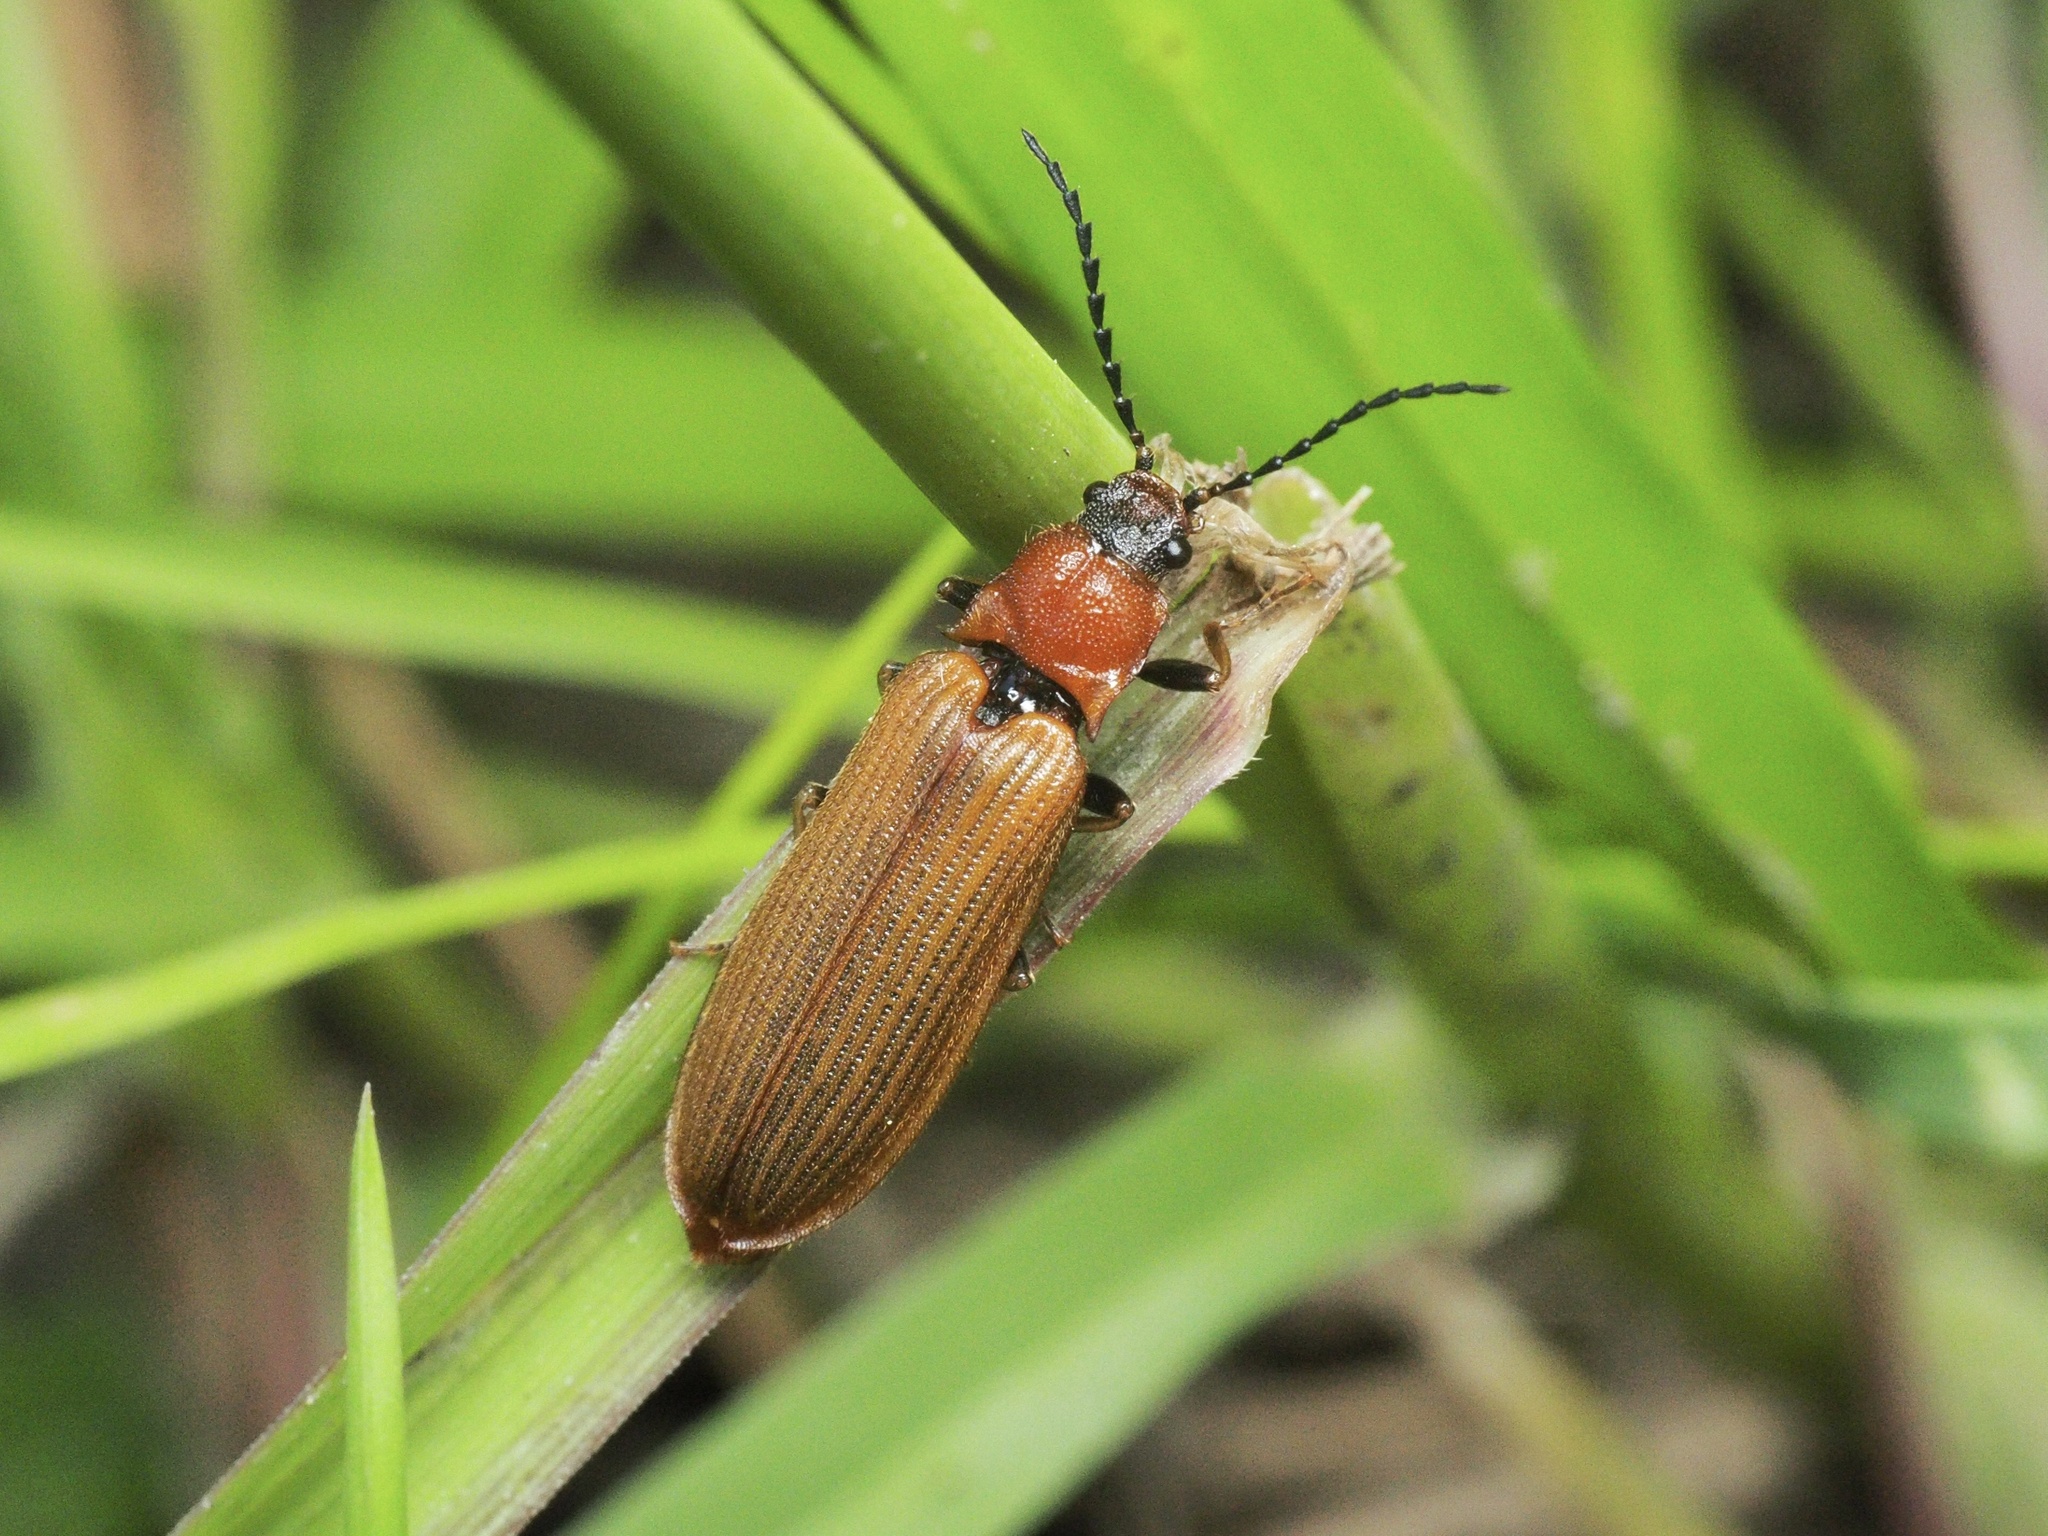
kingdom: Animalia
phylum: Arthropoda
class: Insecta
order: Coleoptera
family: Elateridae
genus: Denticollis
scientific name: Denticollis linearis
